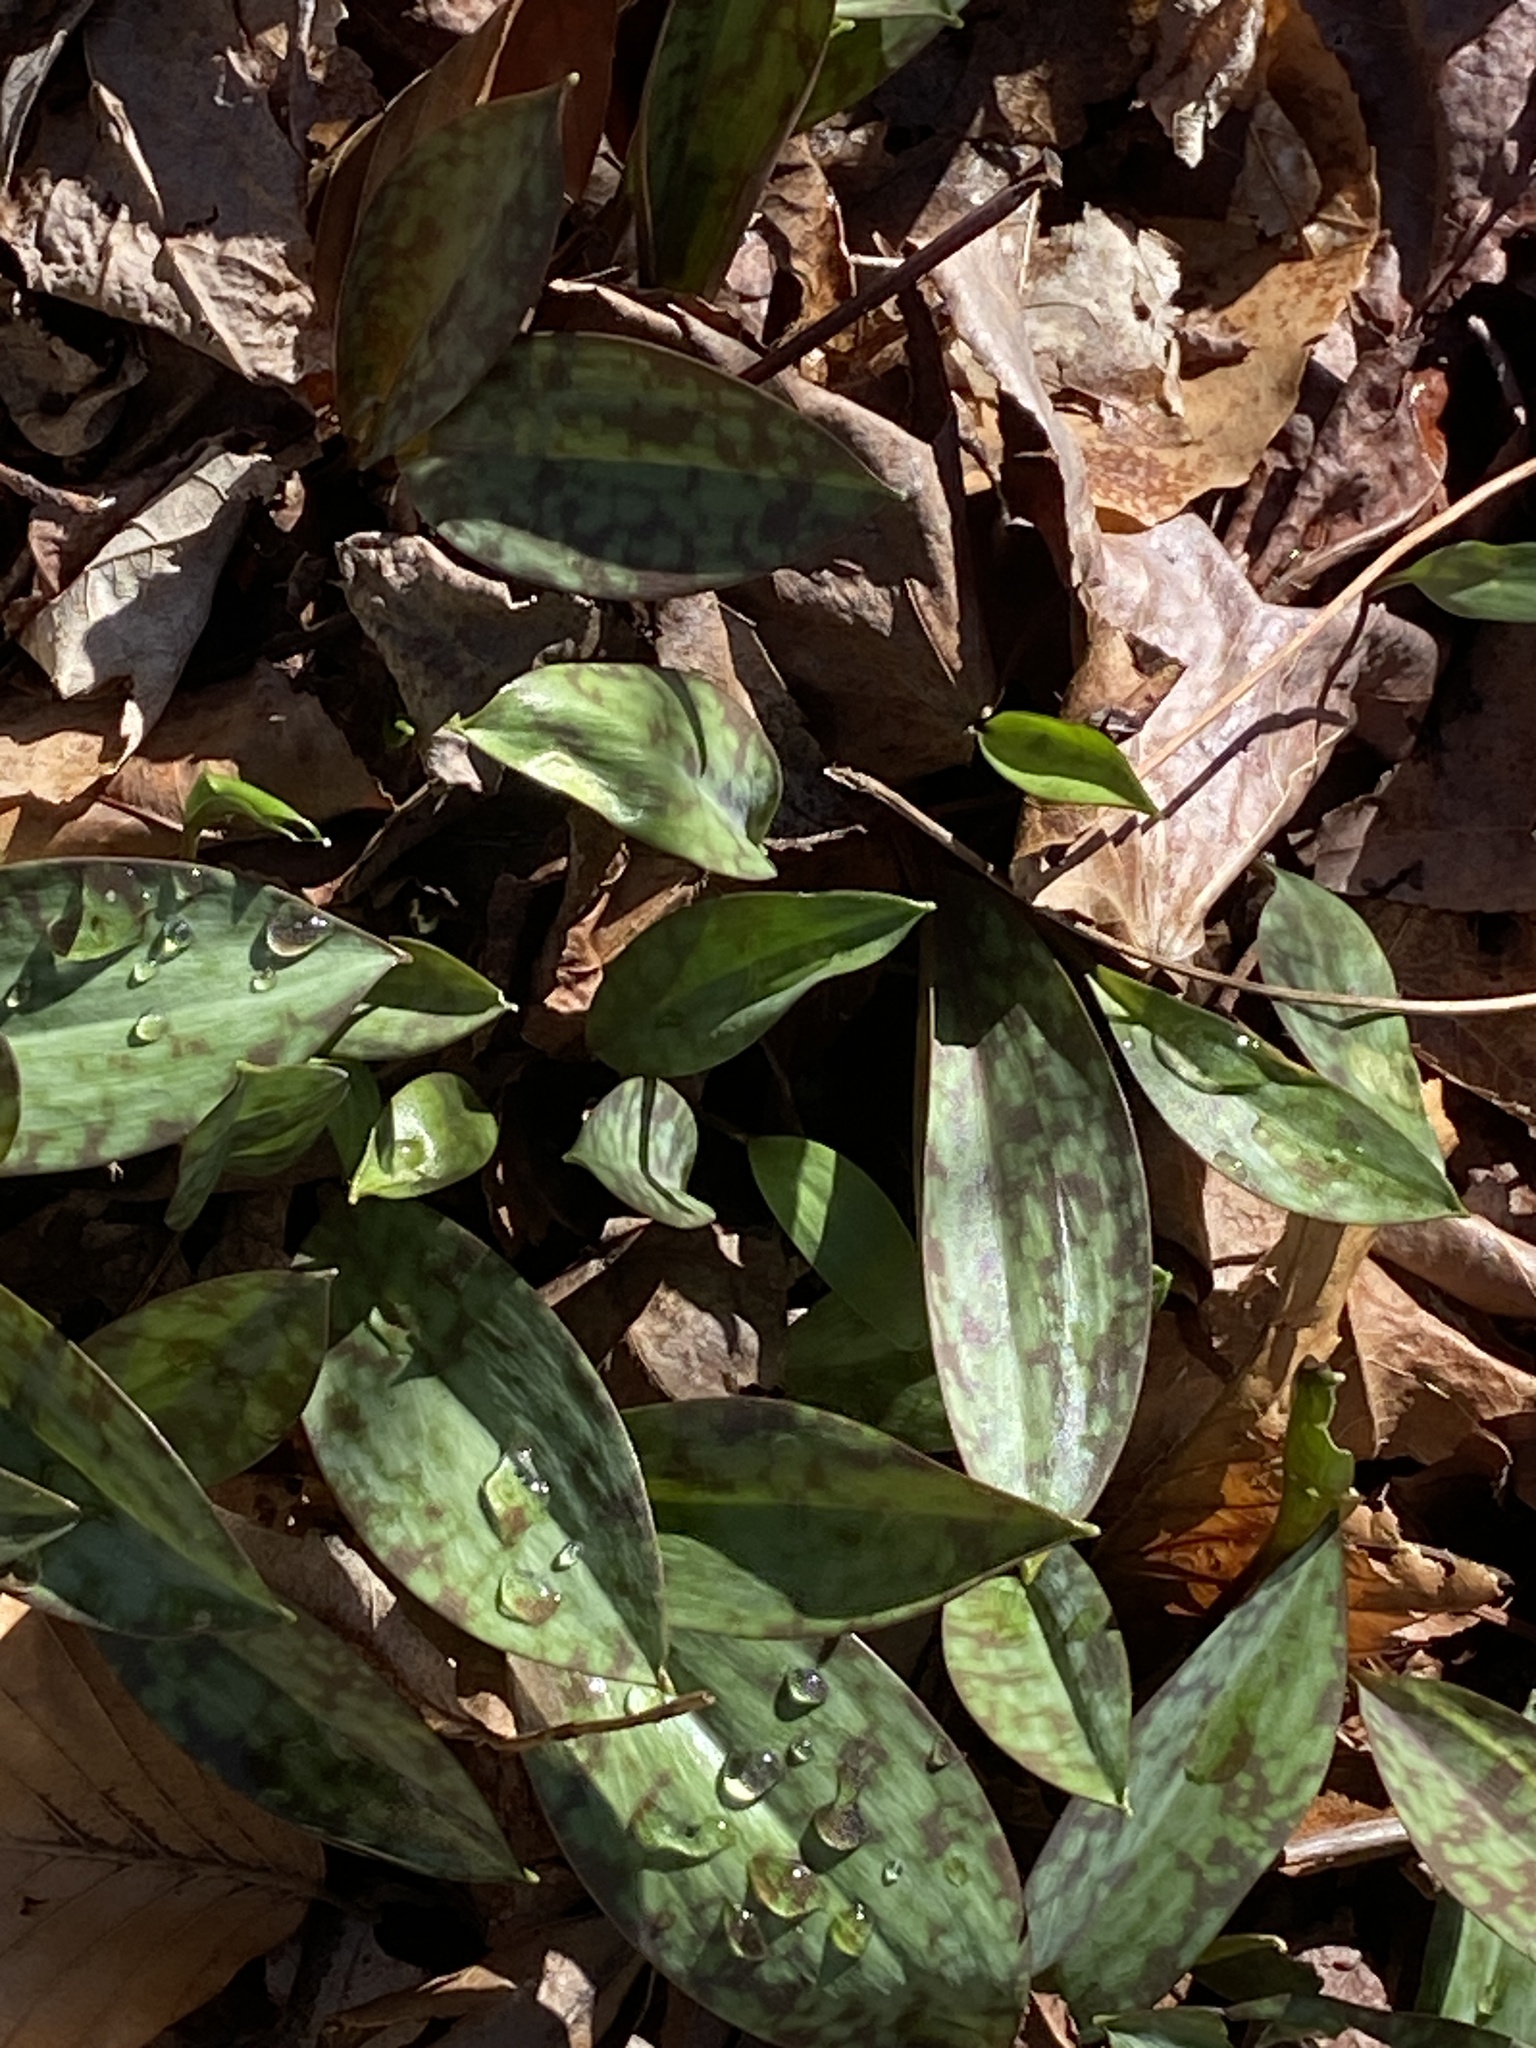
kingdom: Plantae
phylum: Tracheophyta
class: Liliopsida
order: Liliales
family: Liliaceae
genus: Erythronium
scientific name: Erythronium americanum
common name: Yellow adder's-tongue
